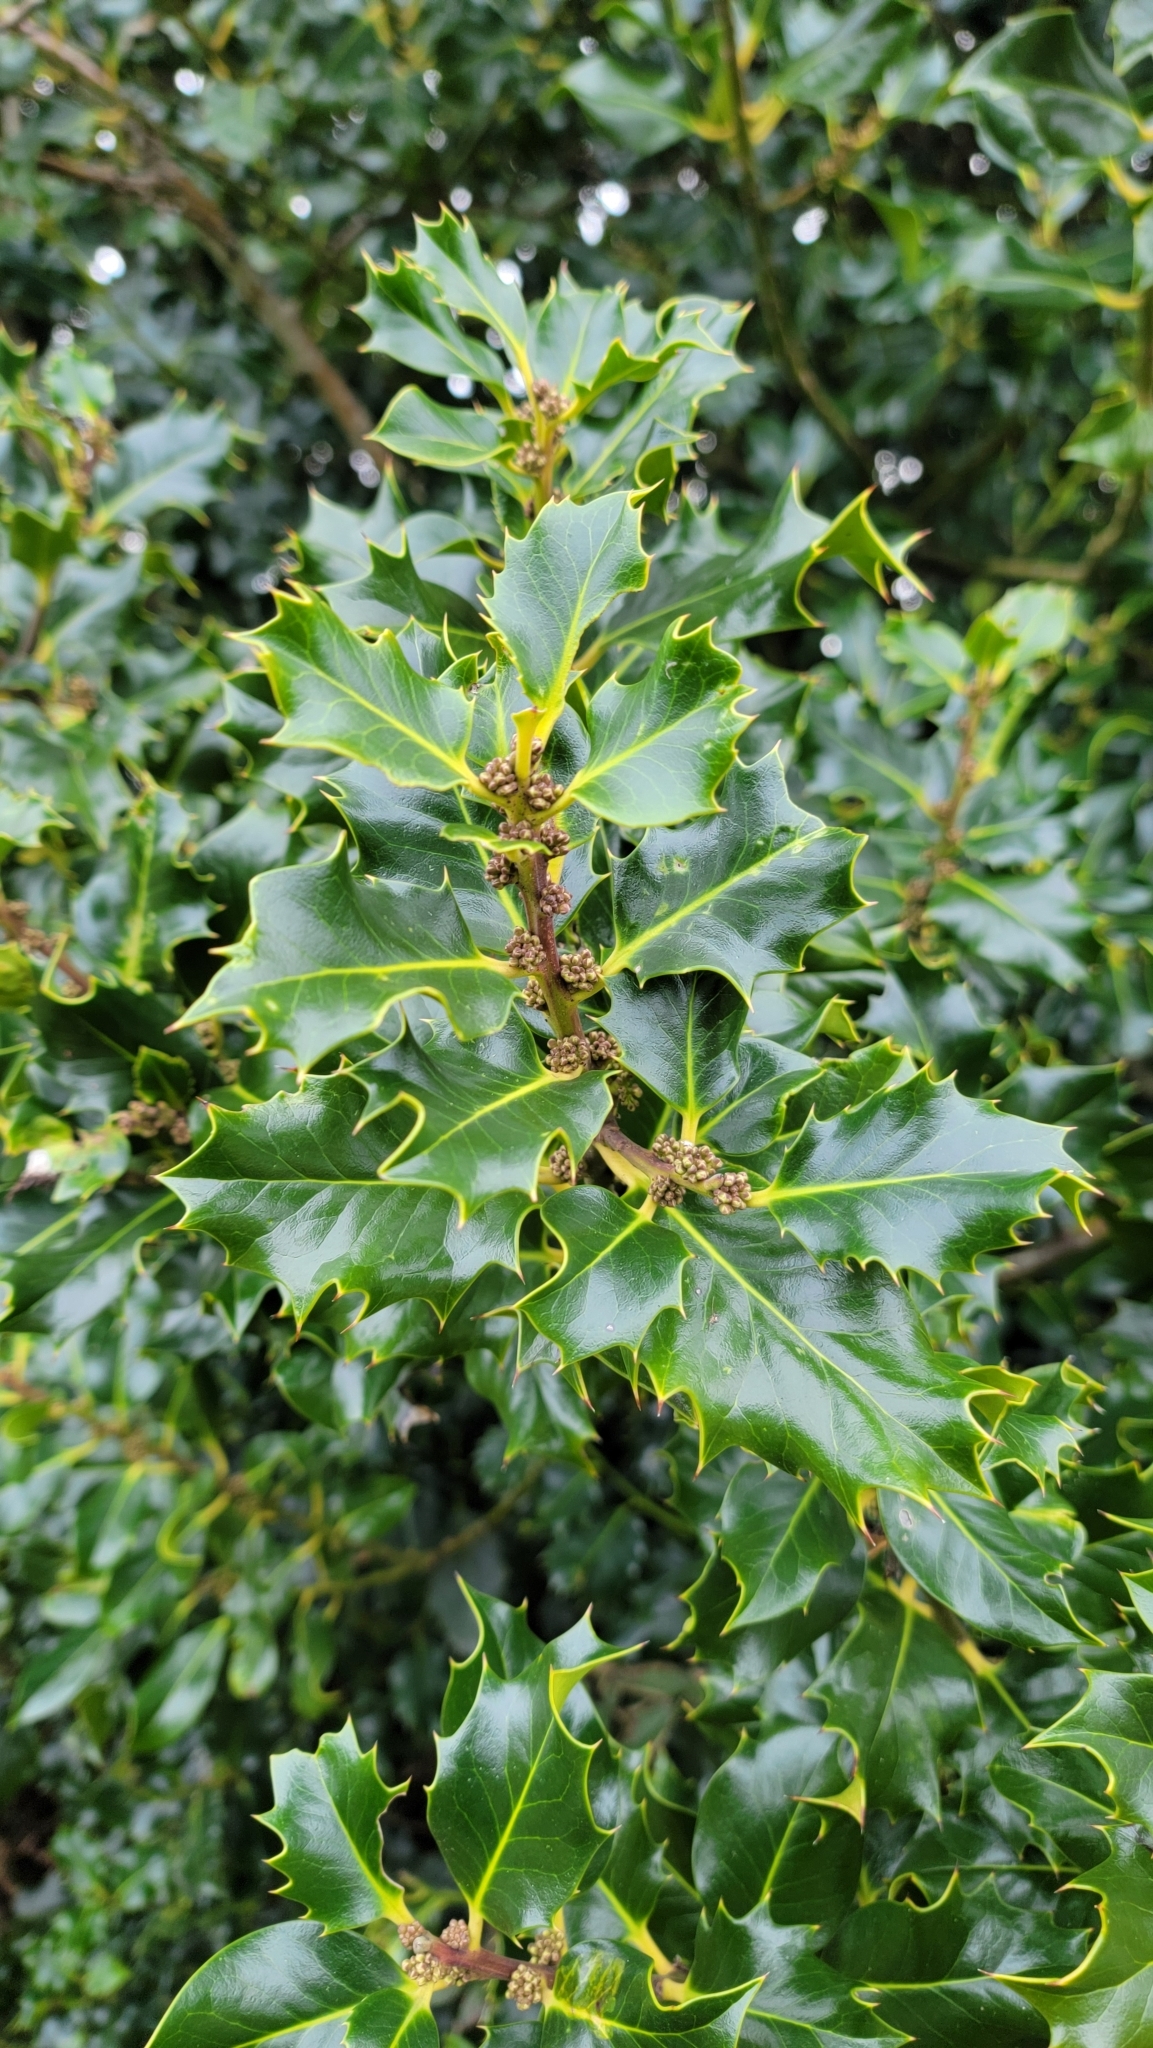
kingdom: Plantae
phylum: Tracheophyta
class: Magnoliopsida
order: Aquifoliales
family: Aquifoliaceae
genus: Ilex
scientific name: Ilex aquifolium
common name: English holly
